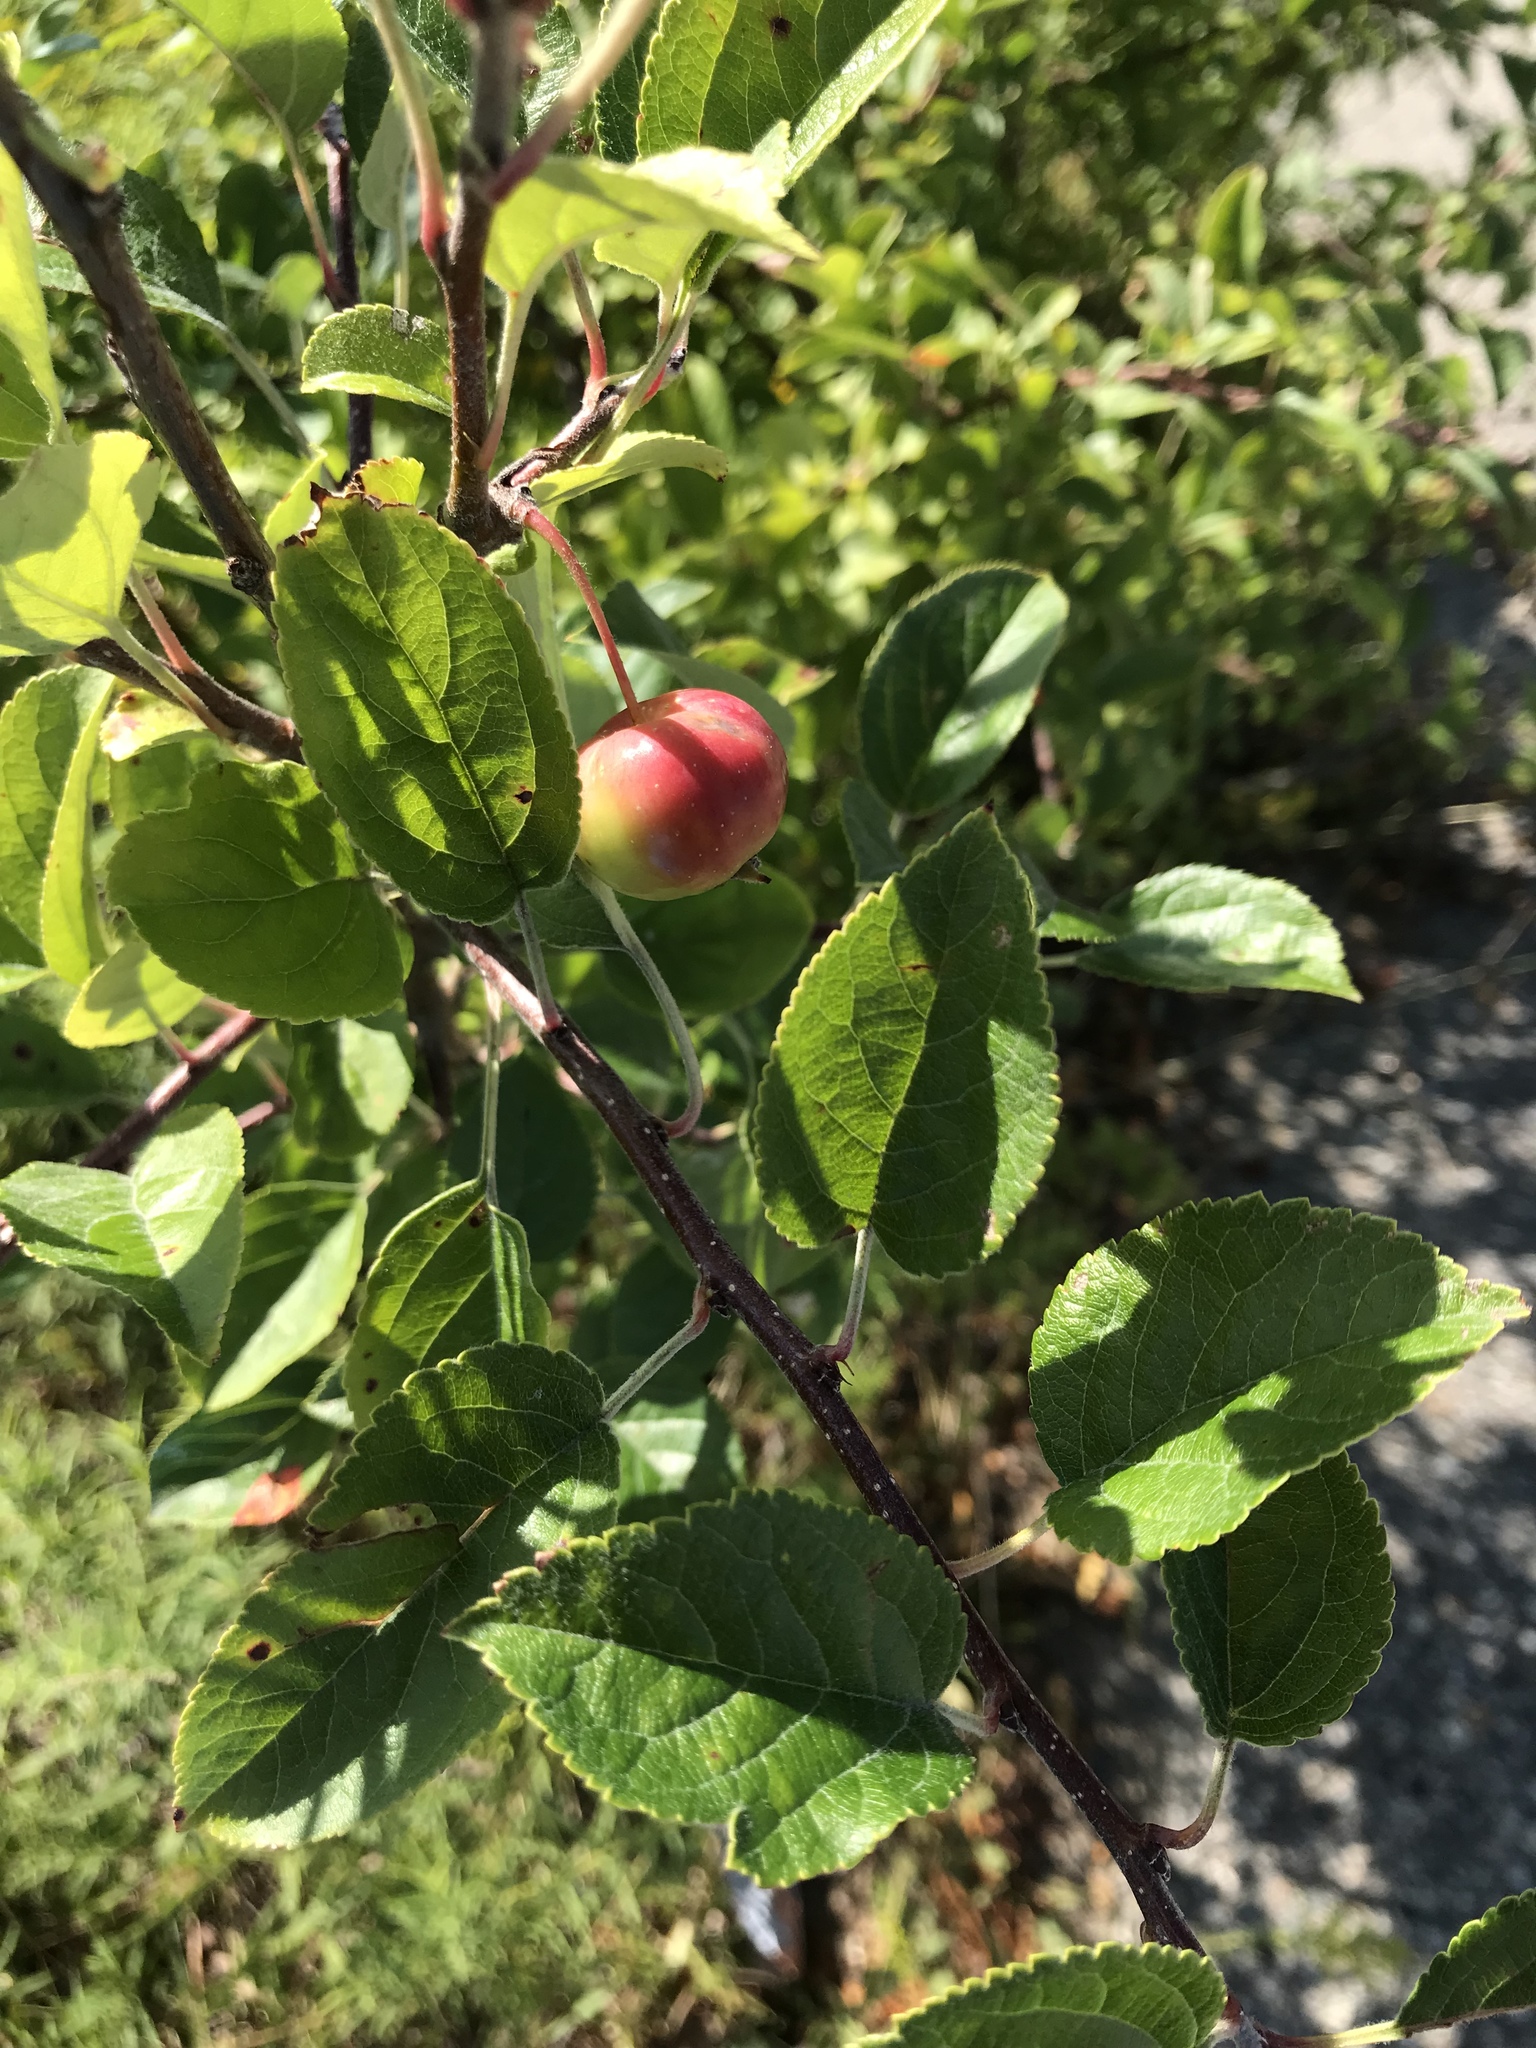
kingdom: Plantae
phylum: Tracheophyta
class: Magnoliopsida
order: Rosales
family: Rosaceae
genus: Malus
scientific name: Malus domestica
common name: Apple
